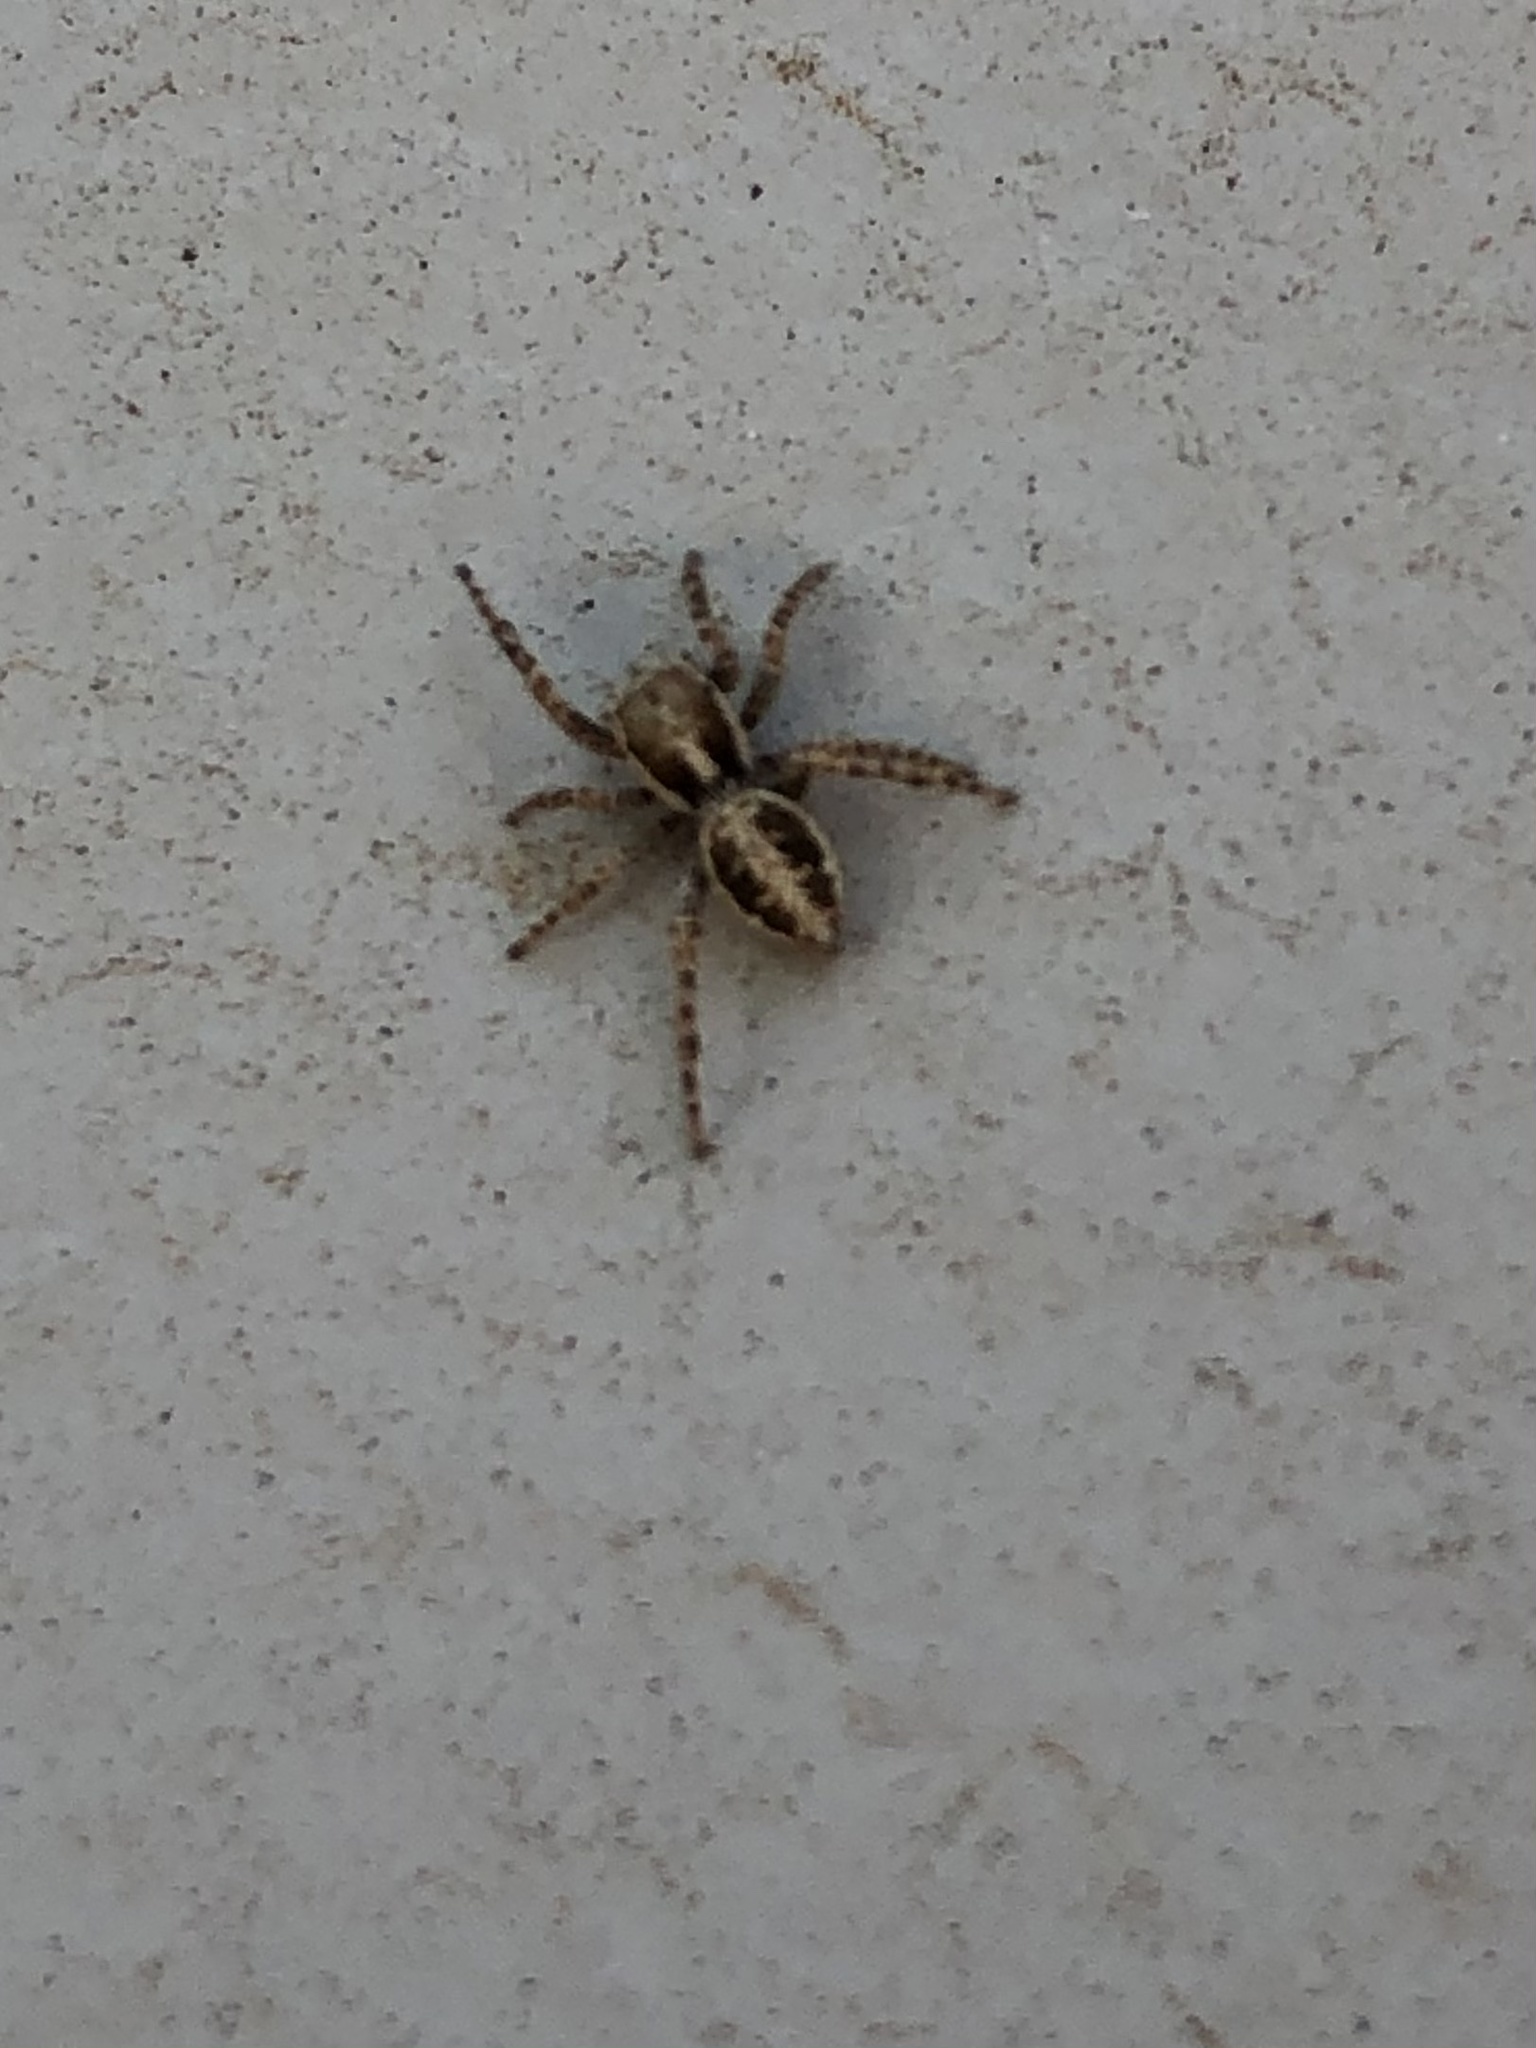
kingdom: Animalia
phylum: Arthropoda
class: Arachnida
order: Araneae
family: Salticidae
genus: Attulus
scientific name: Attulus ammophilus
